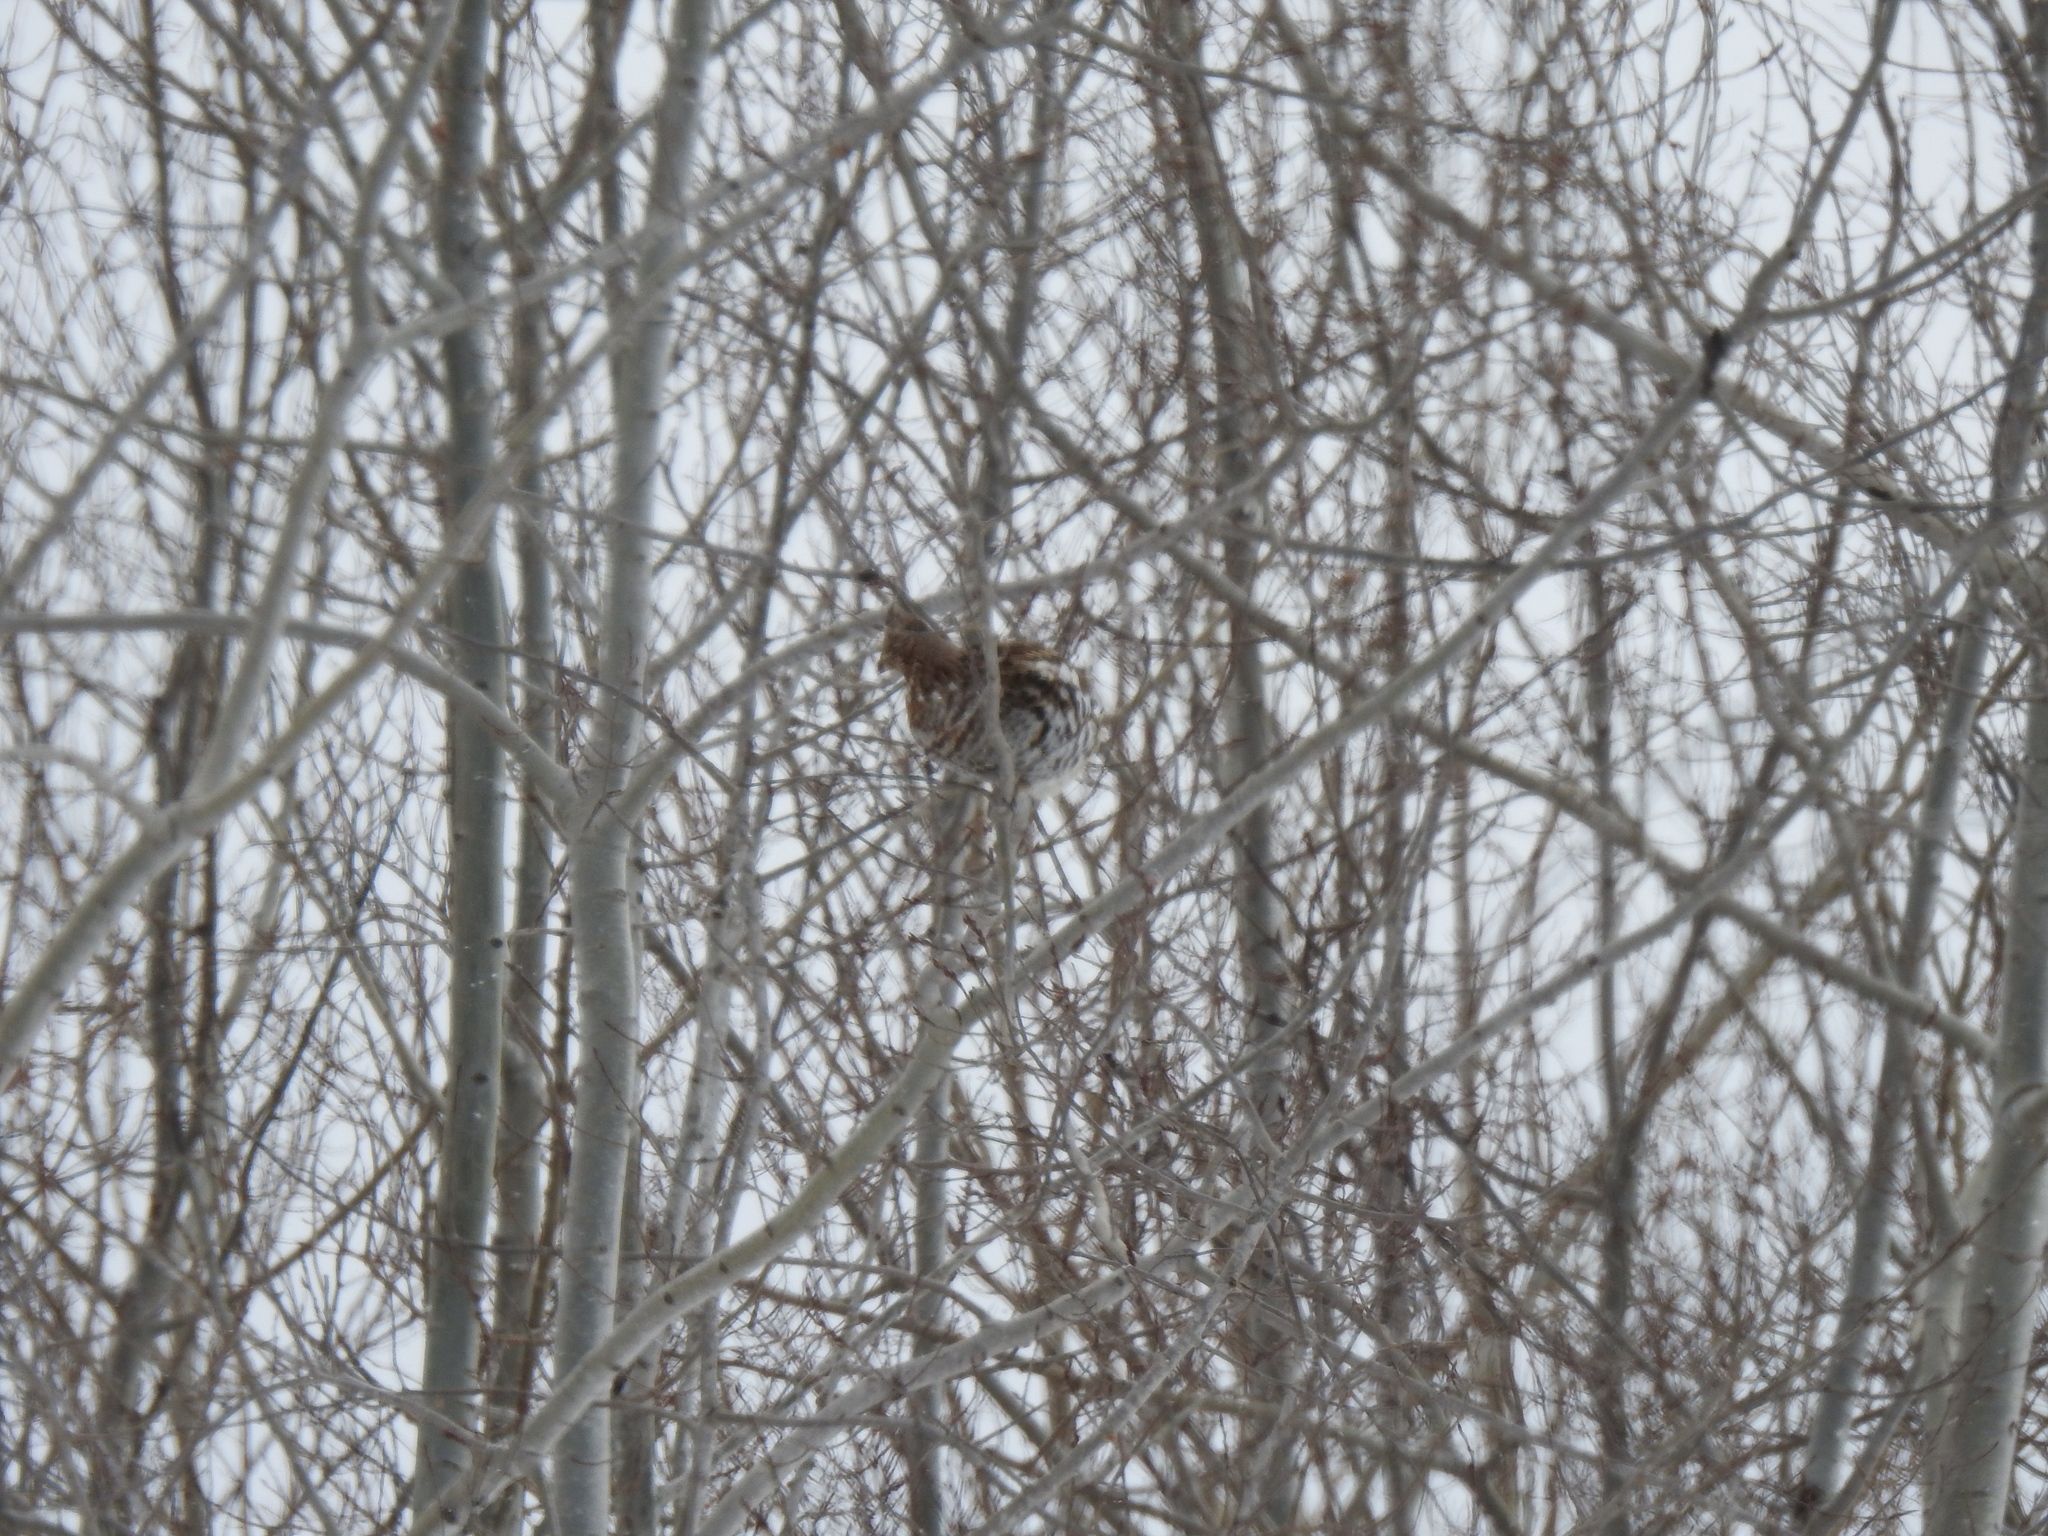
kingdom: Animalia
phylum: Chordata
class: Aves
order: Galliformes
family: Phasianidae
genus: Bonasa
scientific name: Bonasa umbellus
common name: Ruffed grouse
